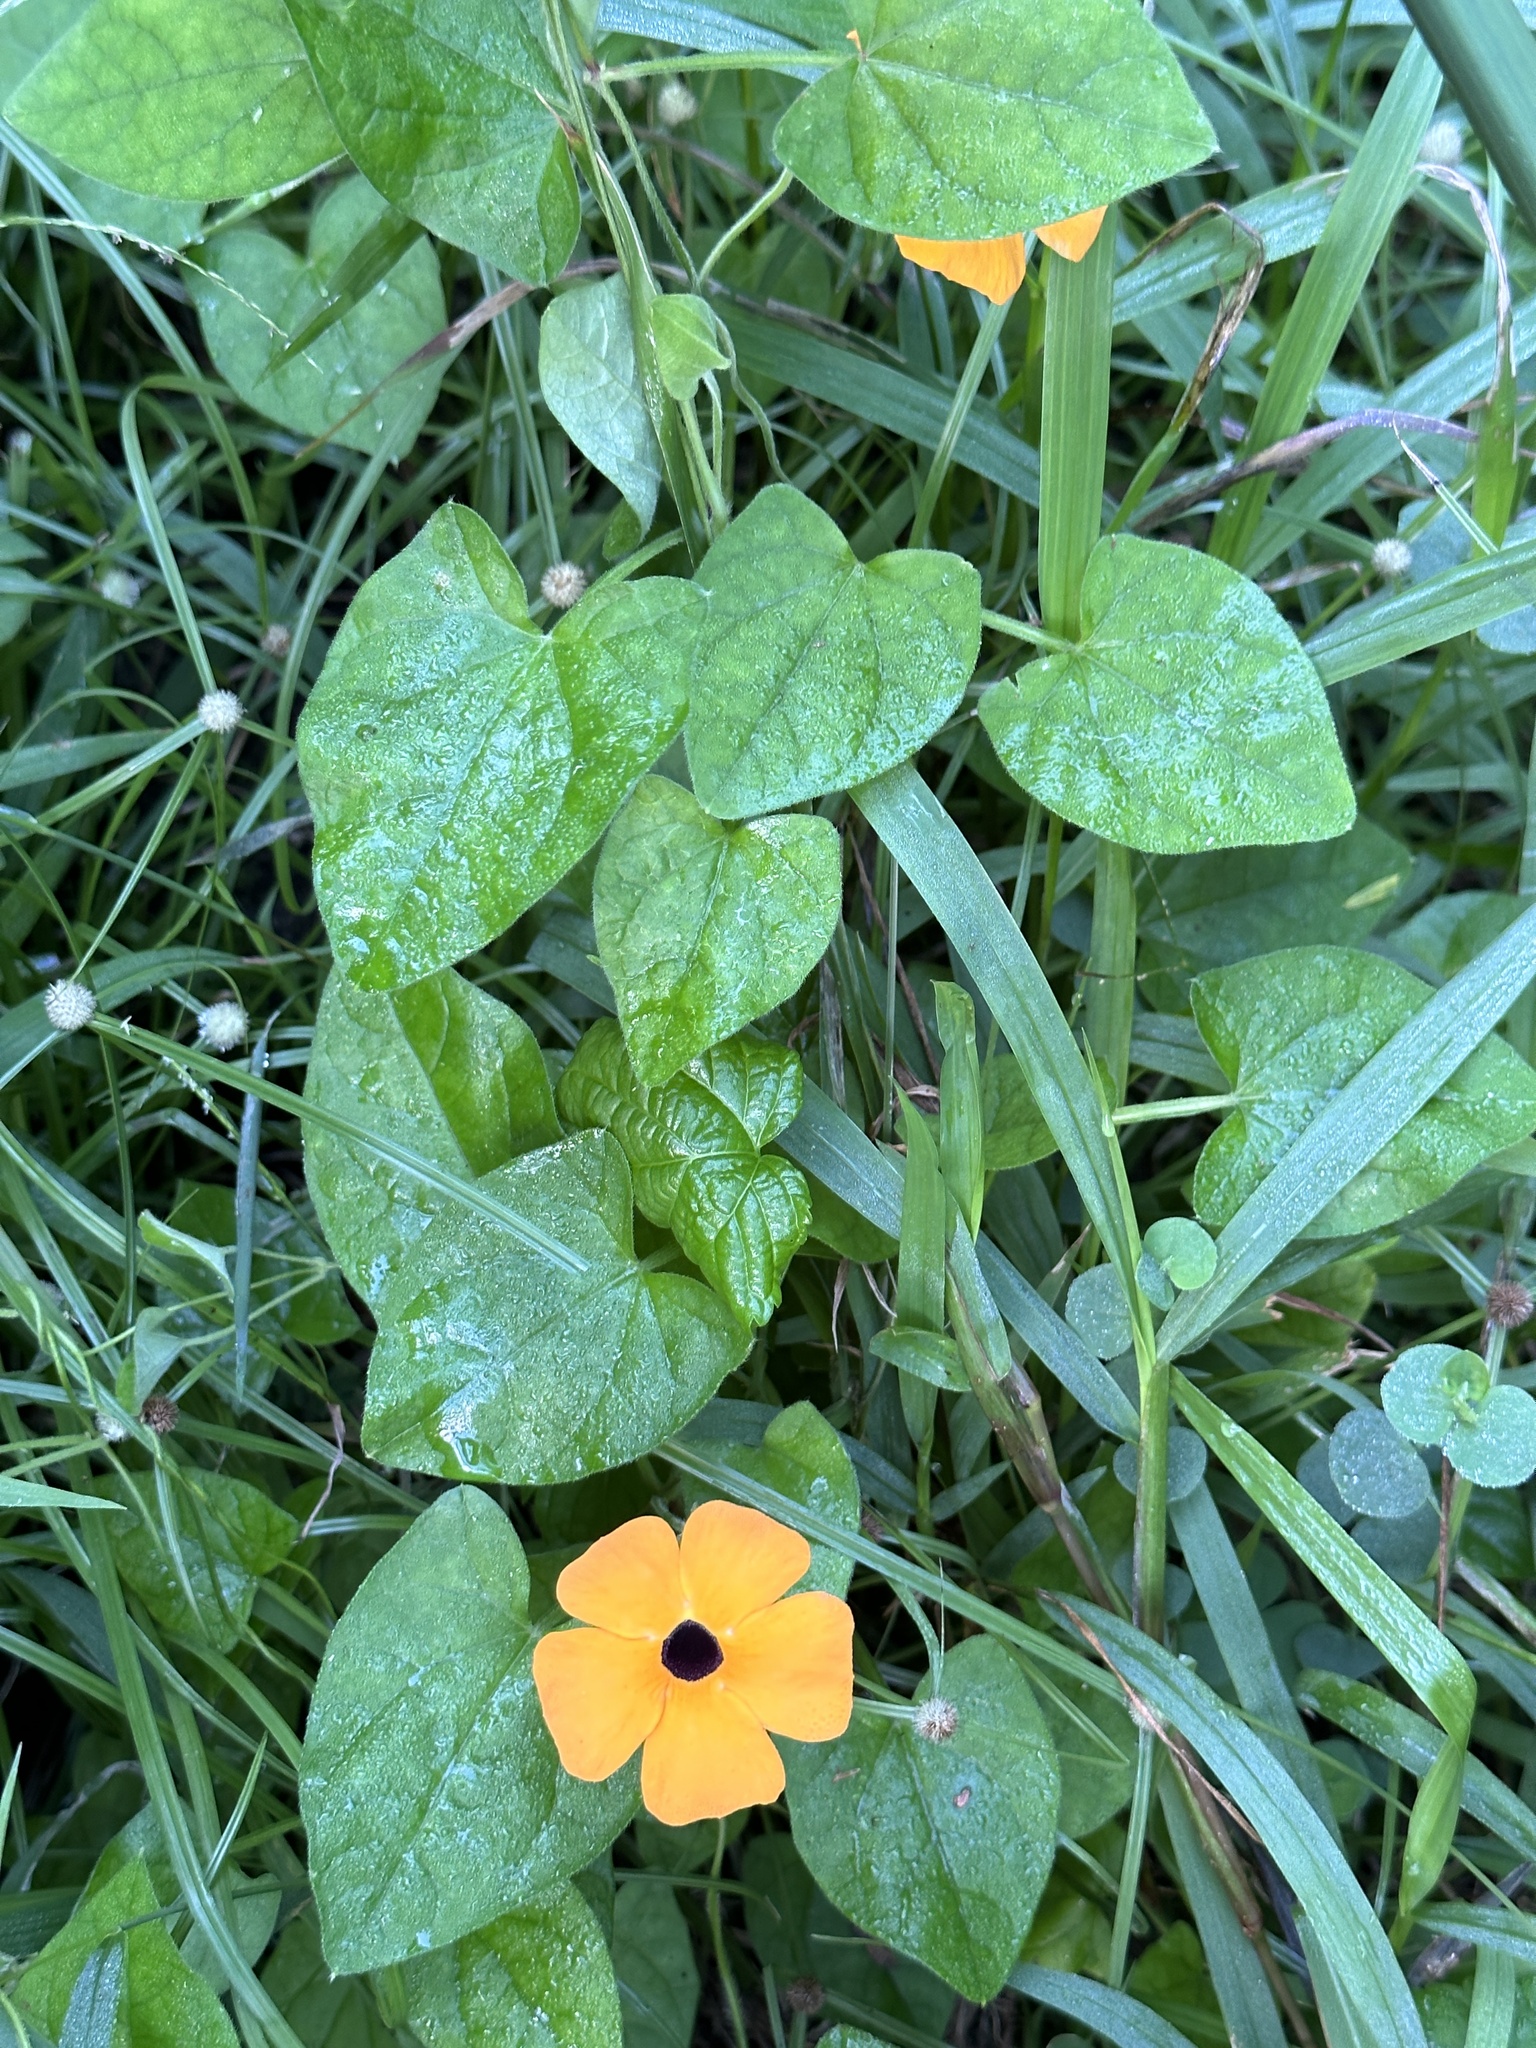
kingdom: Plantae
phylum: Tracheophyta
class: Magnoliopsida
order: Lamiales
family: Acanthaceae
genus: Thunbergia
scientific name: Thunbergia alata
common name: Blackeyed susan vine
